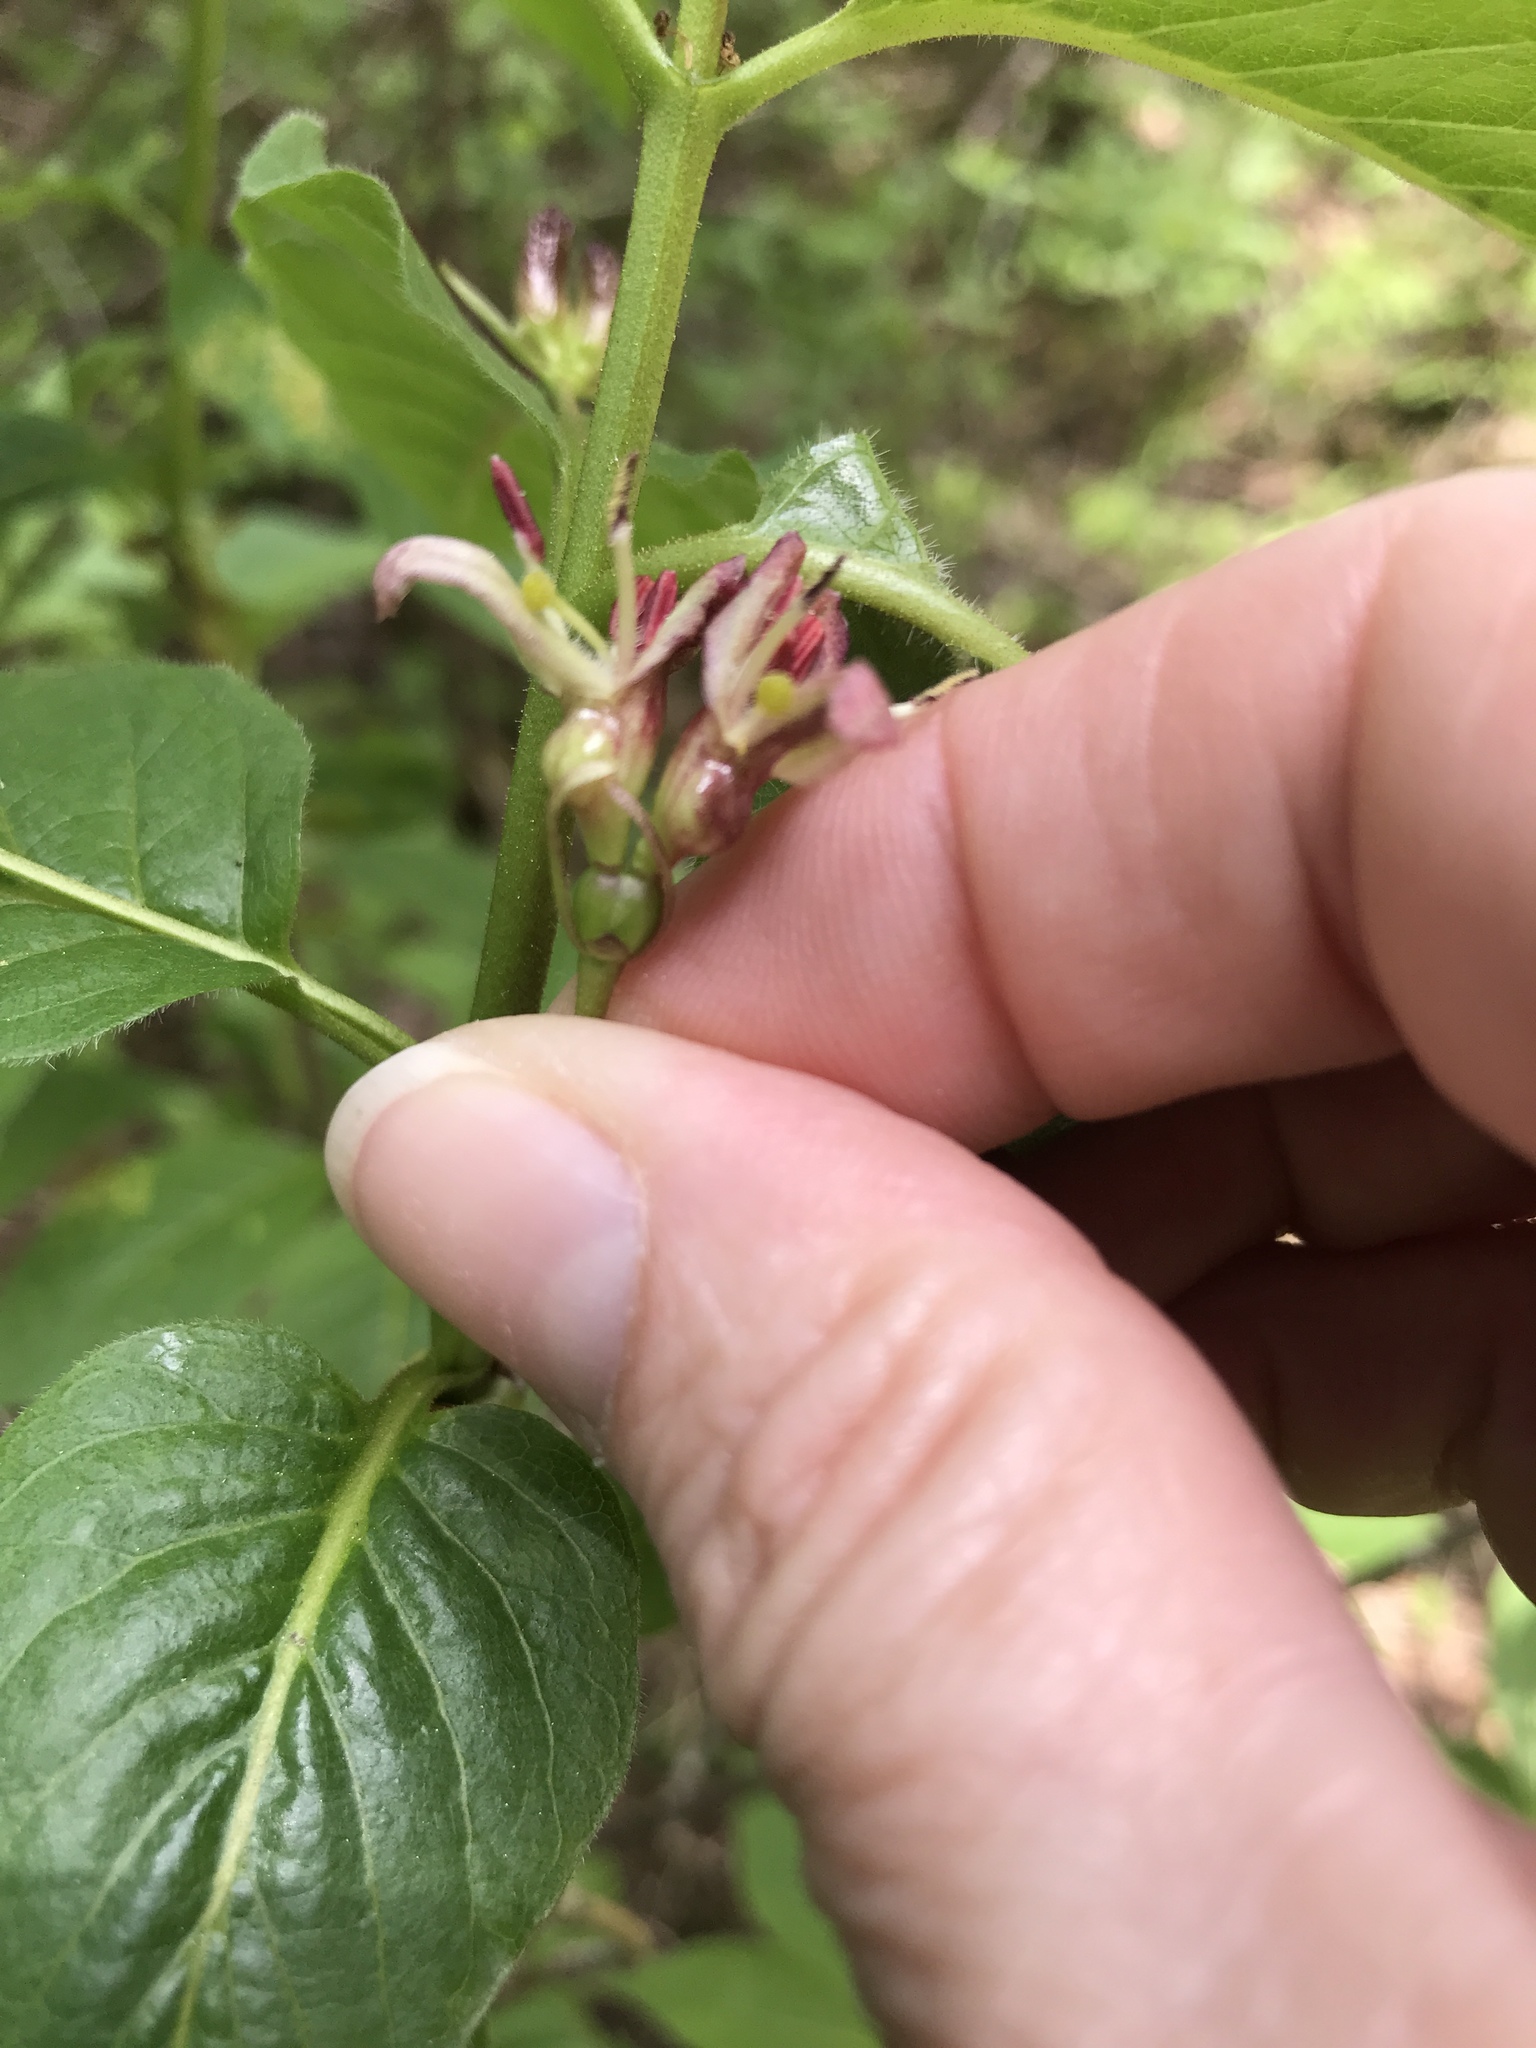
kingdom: Plantae
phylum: Tracheophyta
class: Magnoliopsida
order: Dipsacales
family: Caprifoliaceae
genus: Lonicera
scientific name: Lonicera alpigena
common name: Alpine honeysuckle
